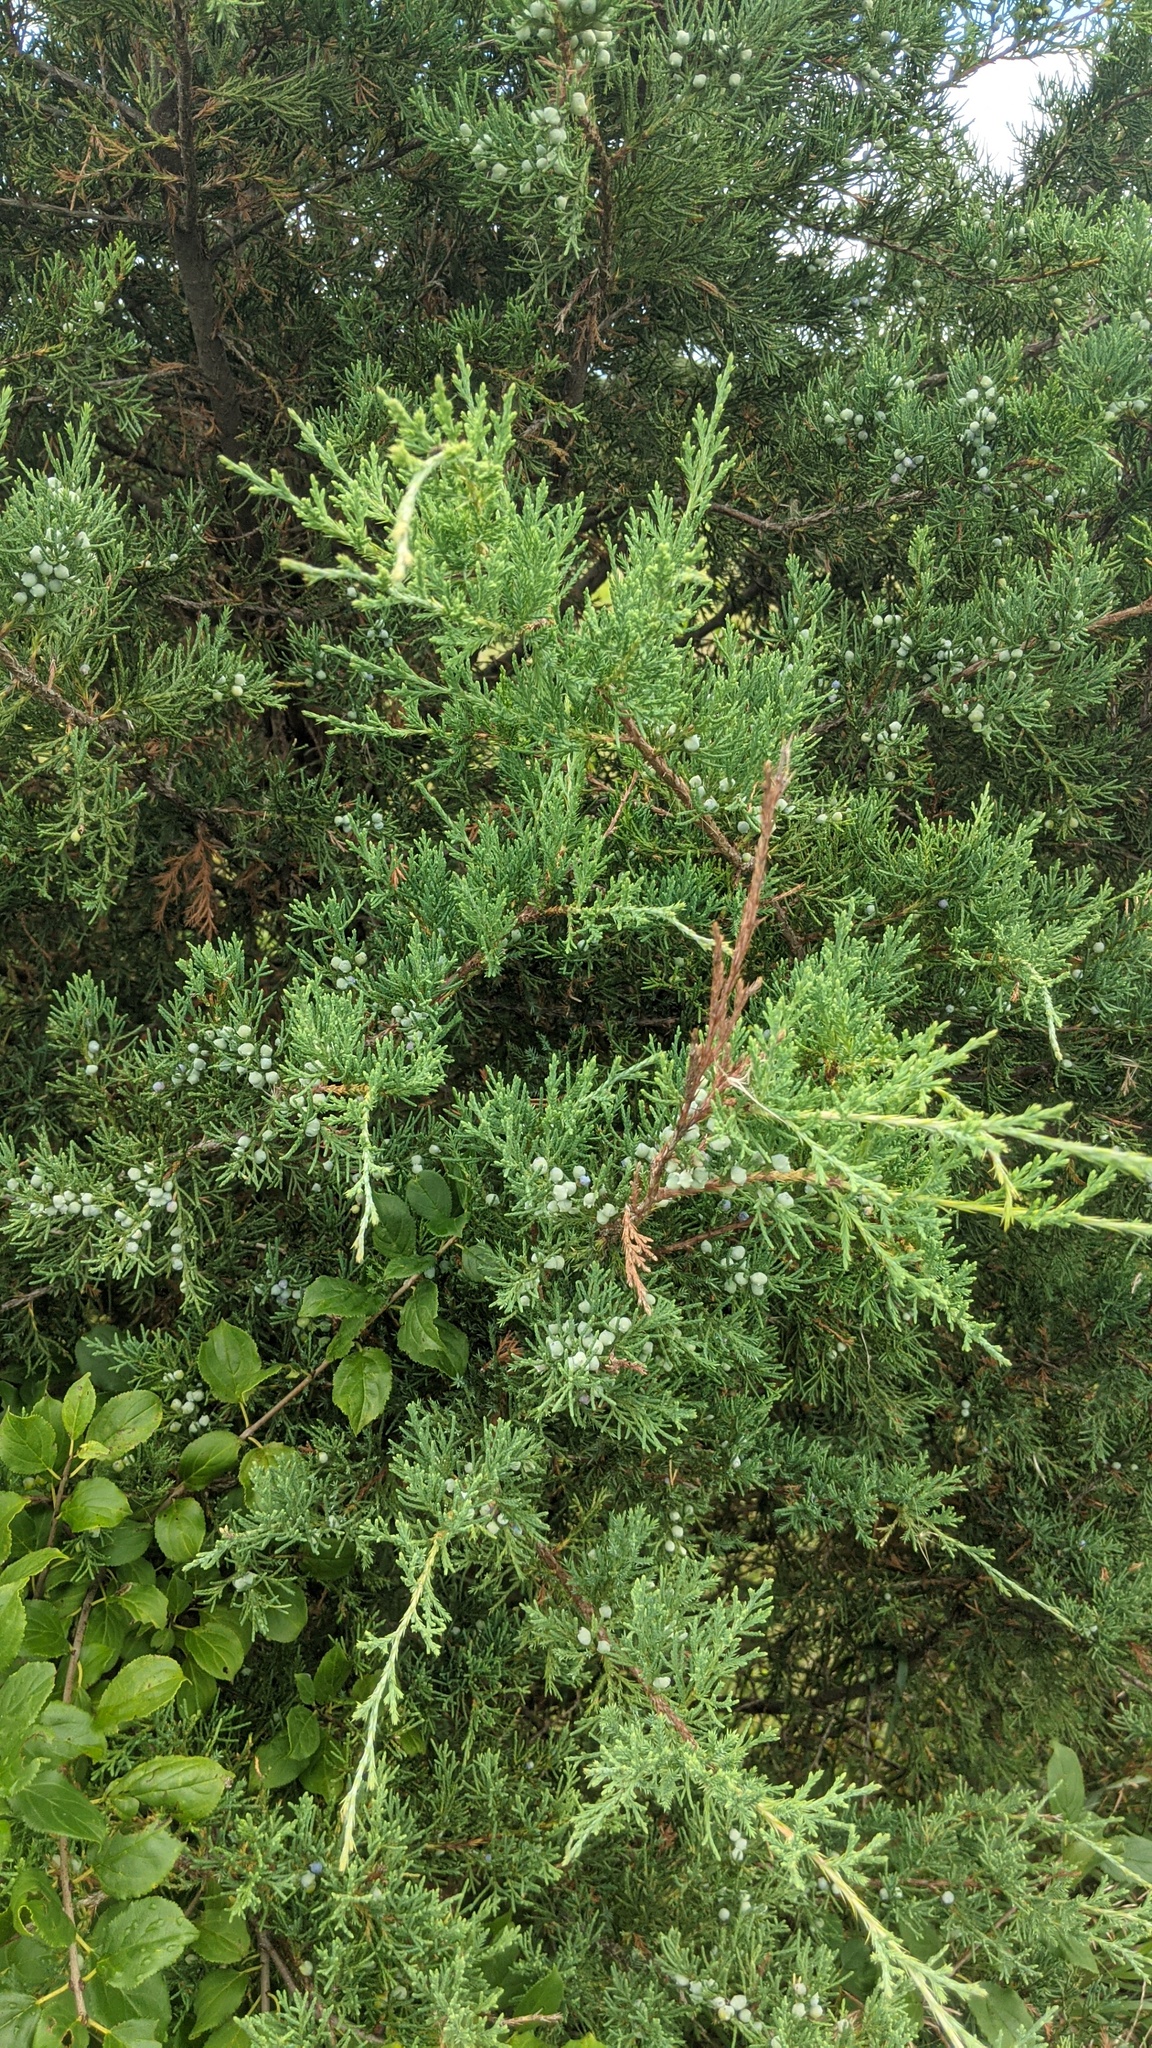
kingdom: Plantae
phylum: Tracheophyta
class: Pinopsida
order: Pinales
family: Cupressaceae
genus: Juniperus
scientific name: Juniperus virginiana
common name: Red juniper
